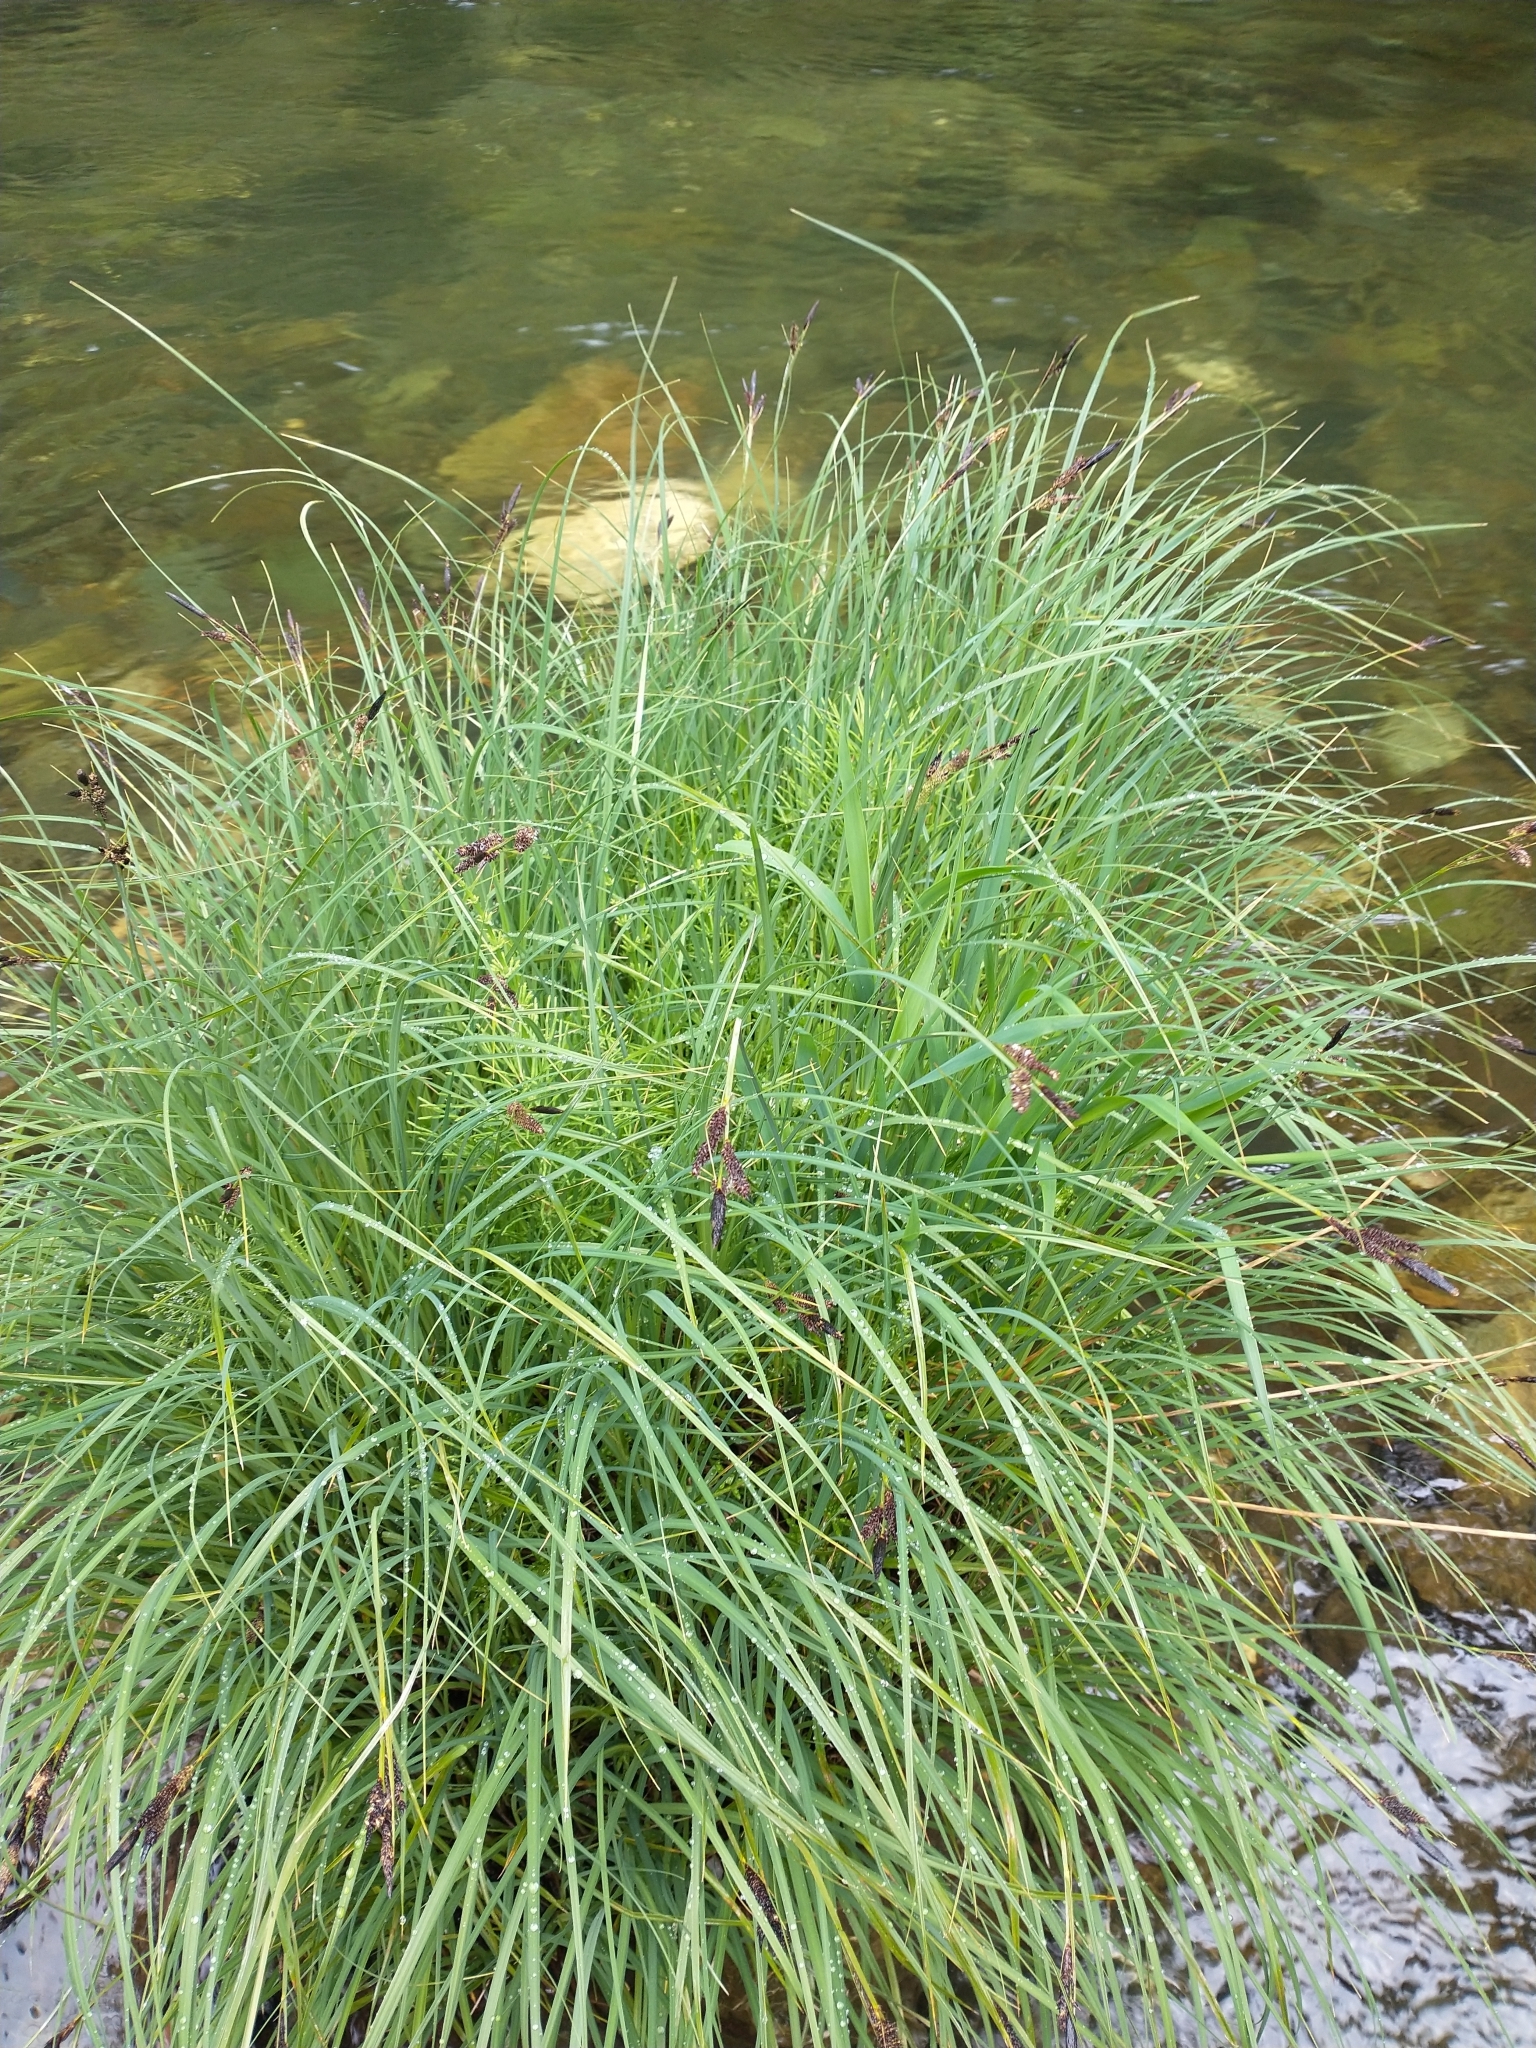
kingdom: Plantae
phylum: Tracheophyta
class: Liliopsida
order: Poales
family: Cyperaceae
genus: Carex
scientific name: Carex nudata
